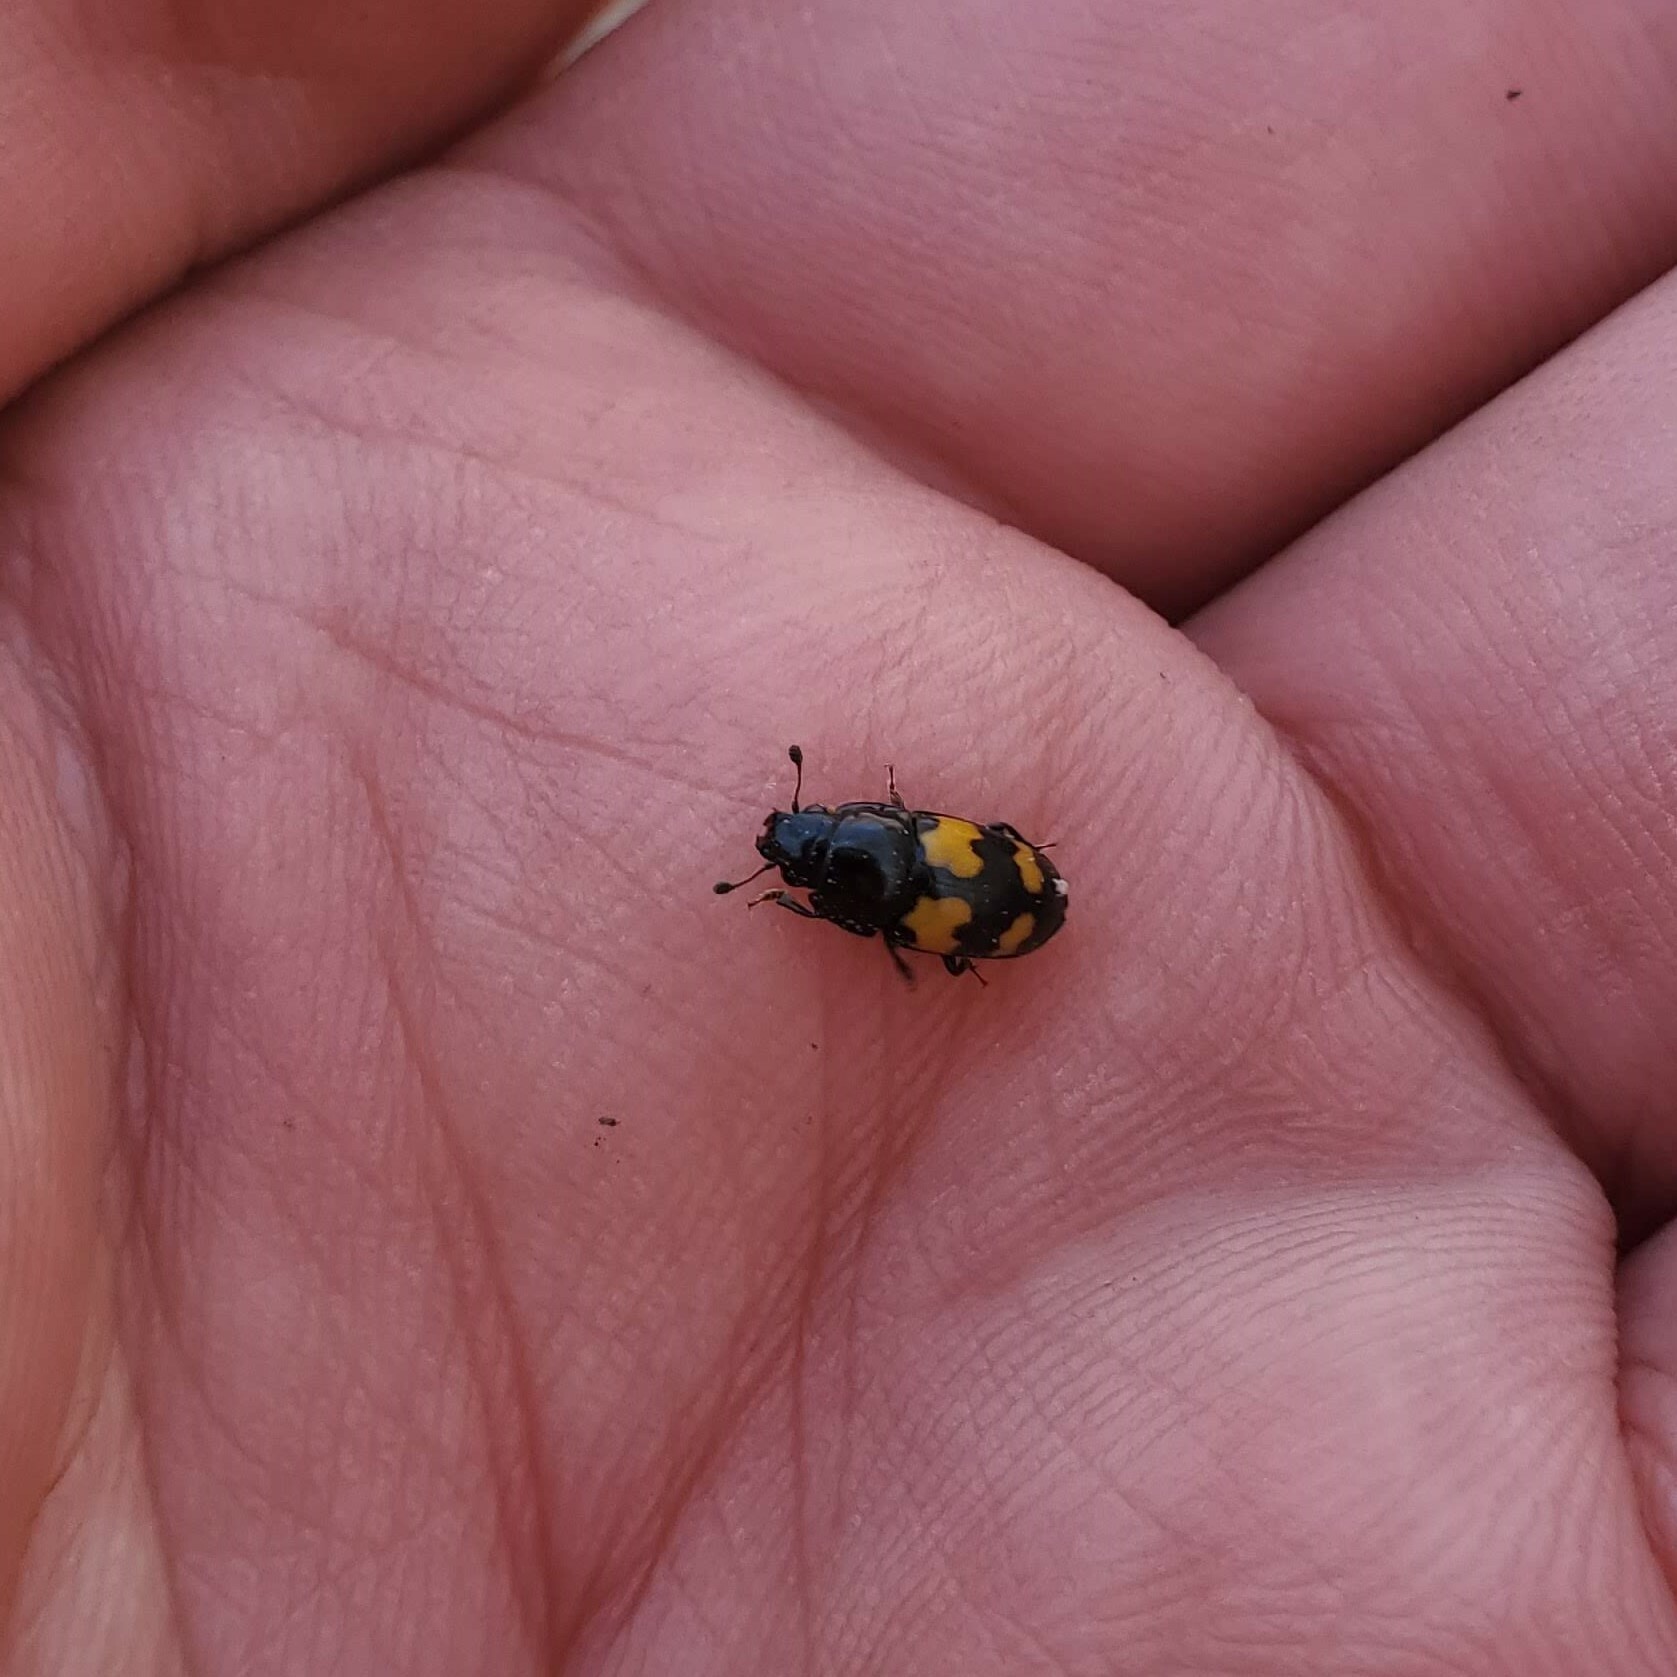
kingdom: Animalia
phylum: Arthropoda
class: Insecta
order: Coleoptera
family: Nitidulidae
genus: Glischrochilus
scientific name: Glischrochilus fasciatus
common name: Picnic beetle
